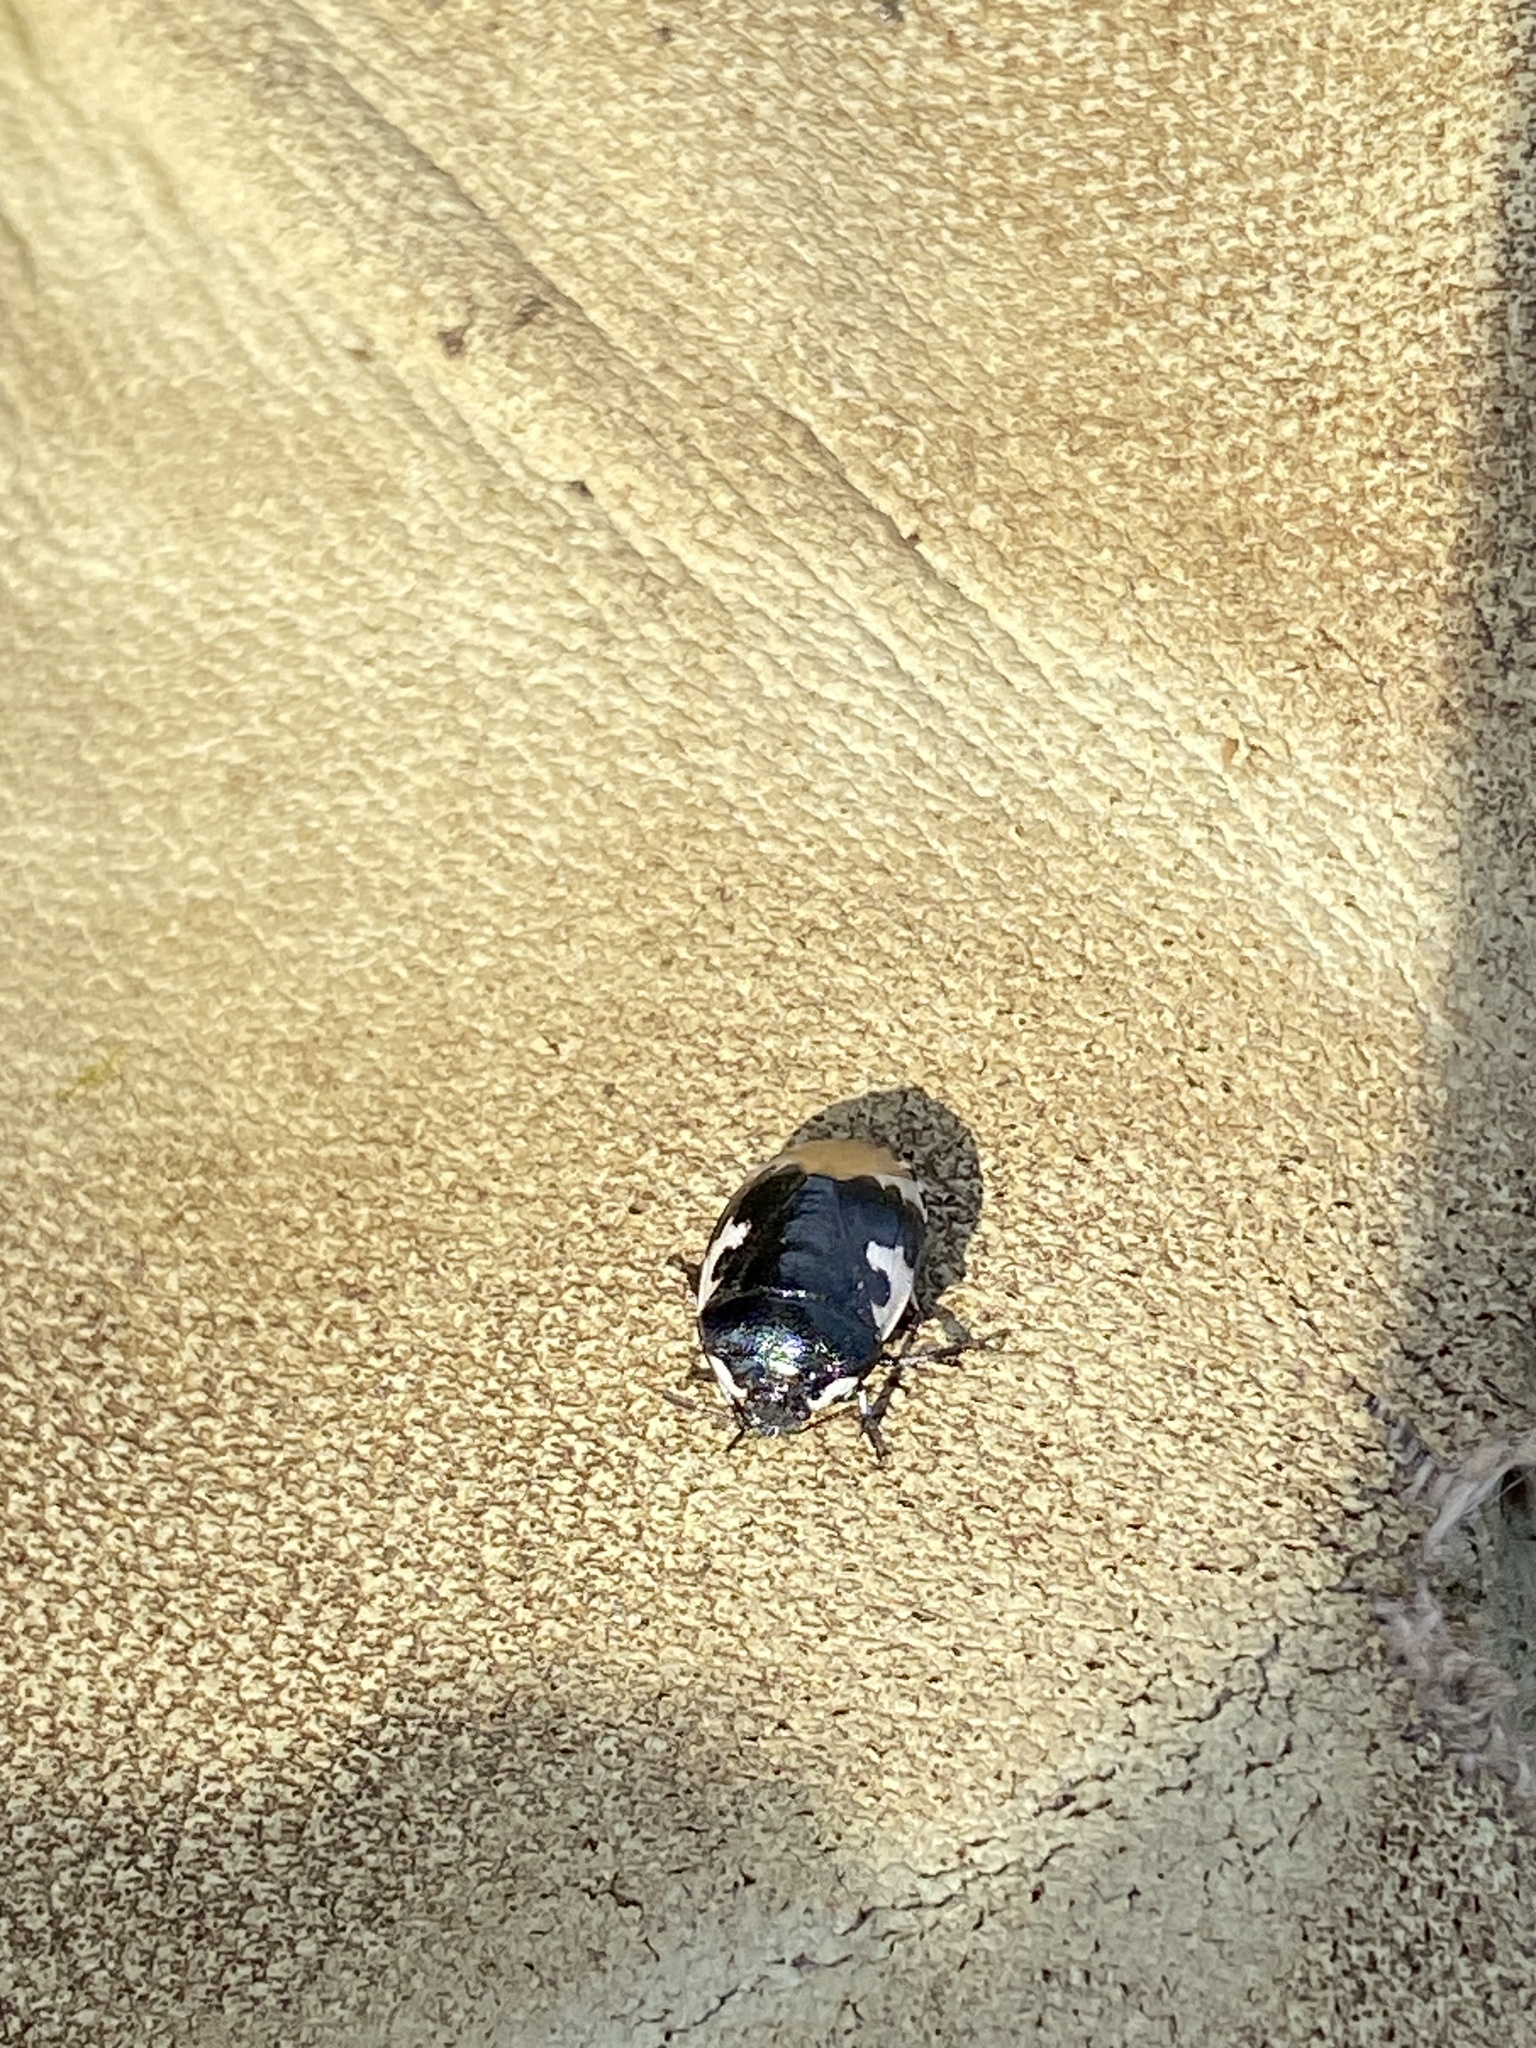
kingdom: Animalia
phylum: Arthropoda
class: Insecta
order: Hemiptera
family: Cydnidae
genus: Tritomegas
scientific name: Tritomegas bicolor
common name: Pied shieldbug
